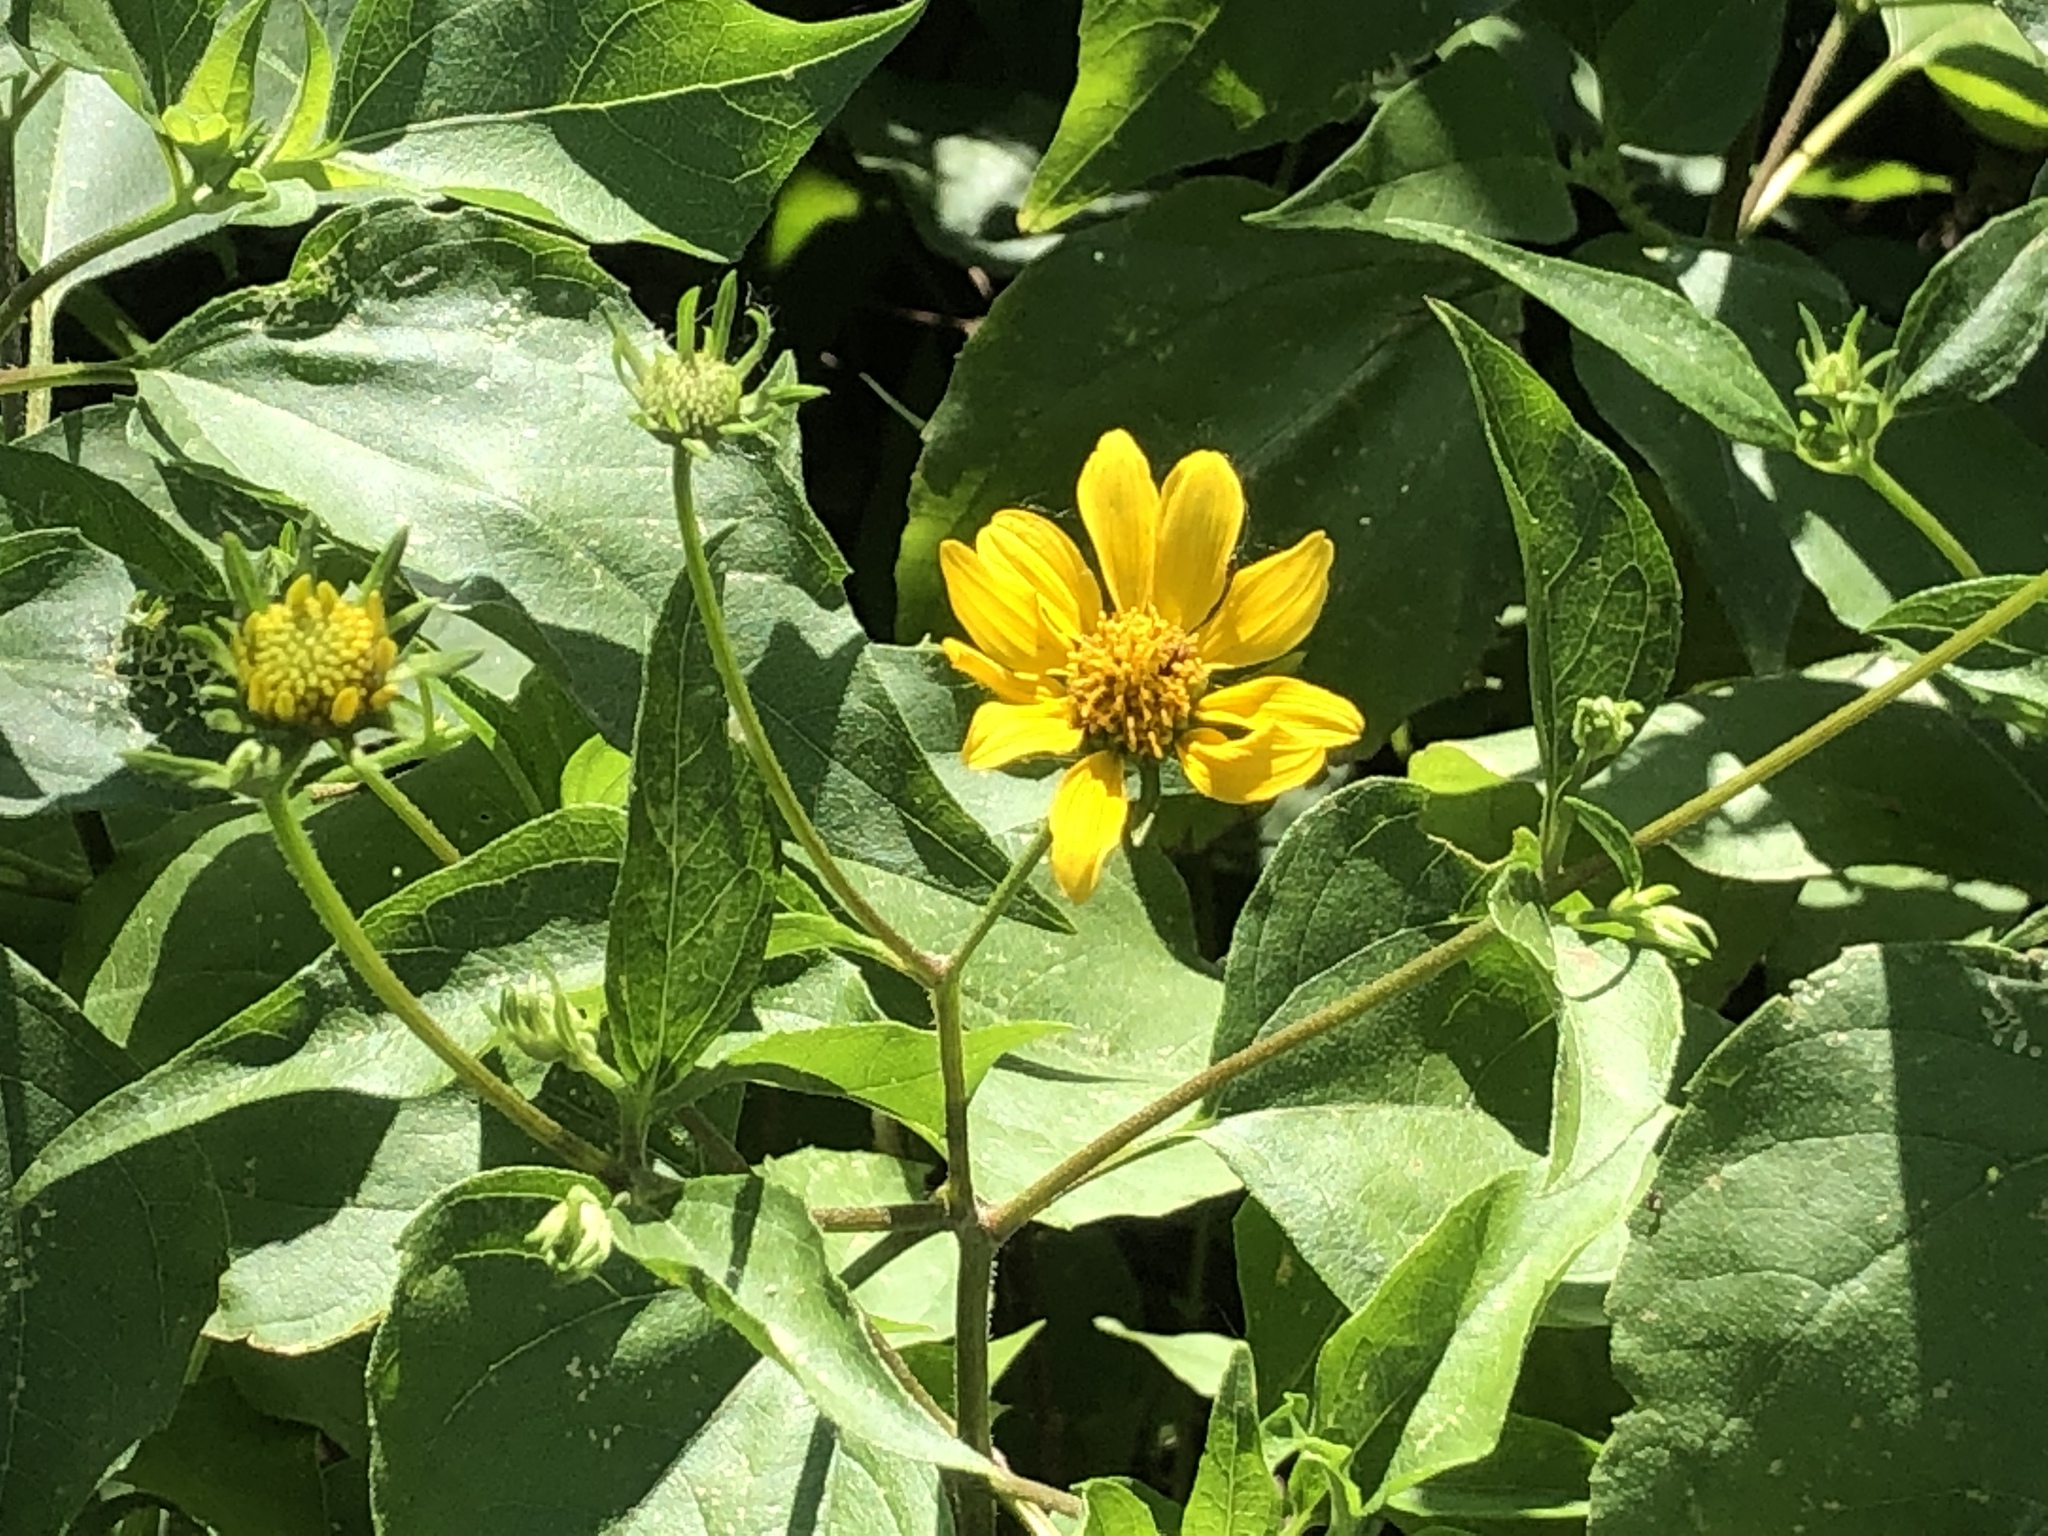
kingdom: Plantae
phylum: Tracheophyta
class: Magnoliopsida
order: Asterales
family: Asteraceae
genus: Viguiera
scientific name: Viguiera dentata
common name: Toothleaf
